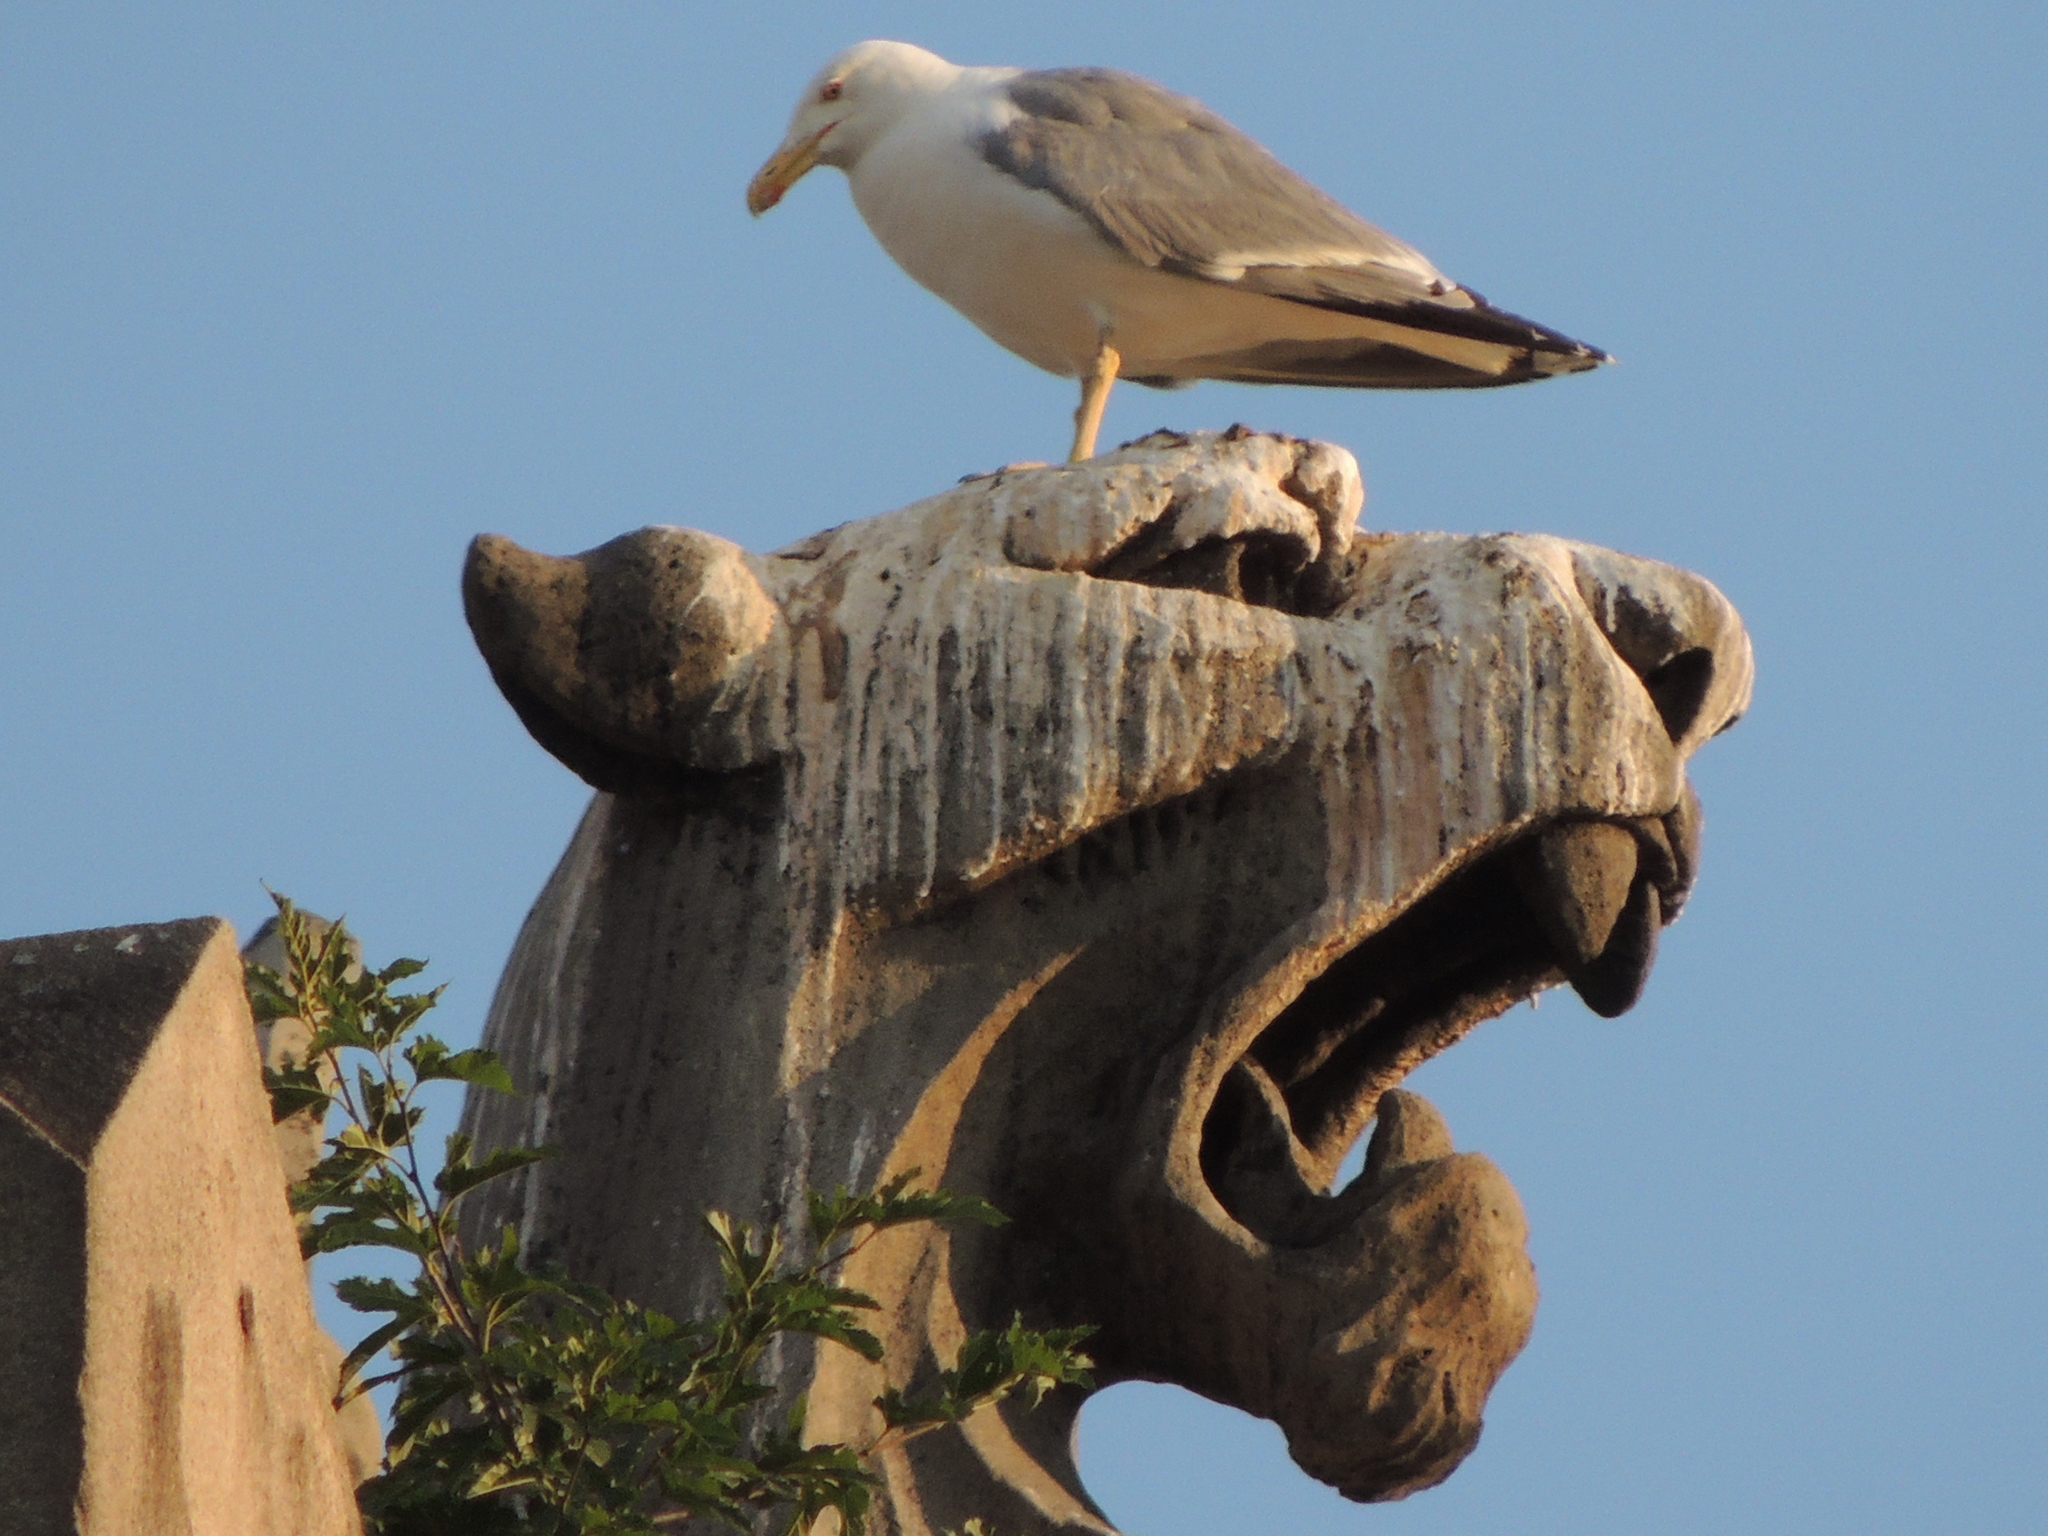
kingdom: Animalia
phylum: Chordata
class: Aves
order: Charadriiformes
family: Laridae
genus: Larus
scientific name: Larus michahellis
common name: Yellow-legged gull
